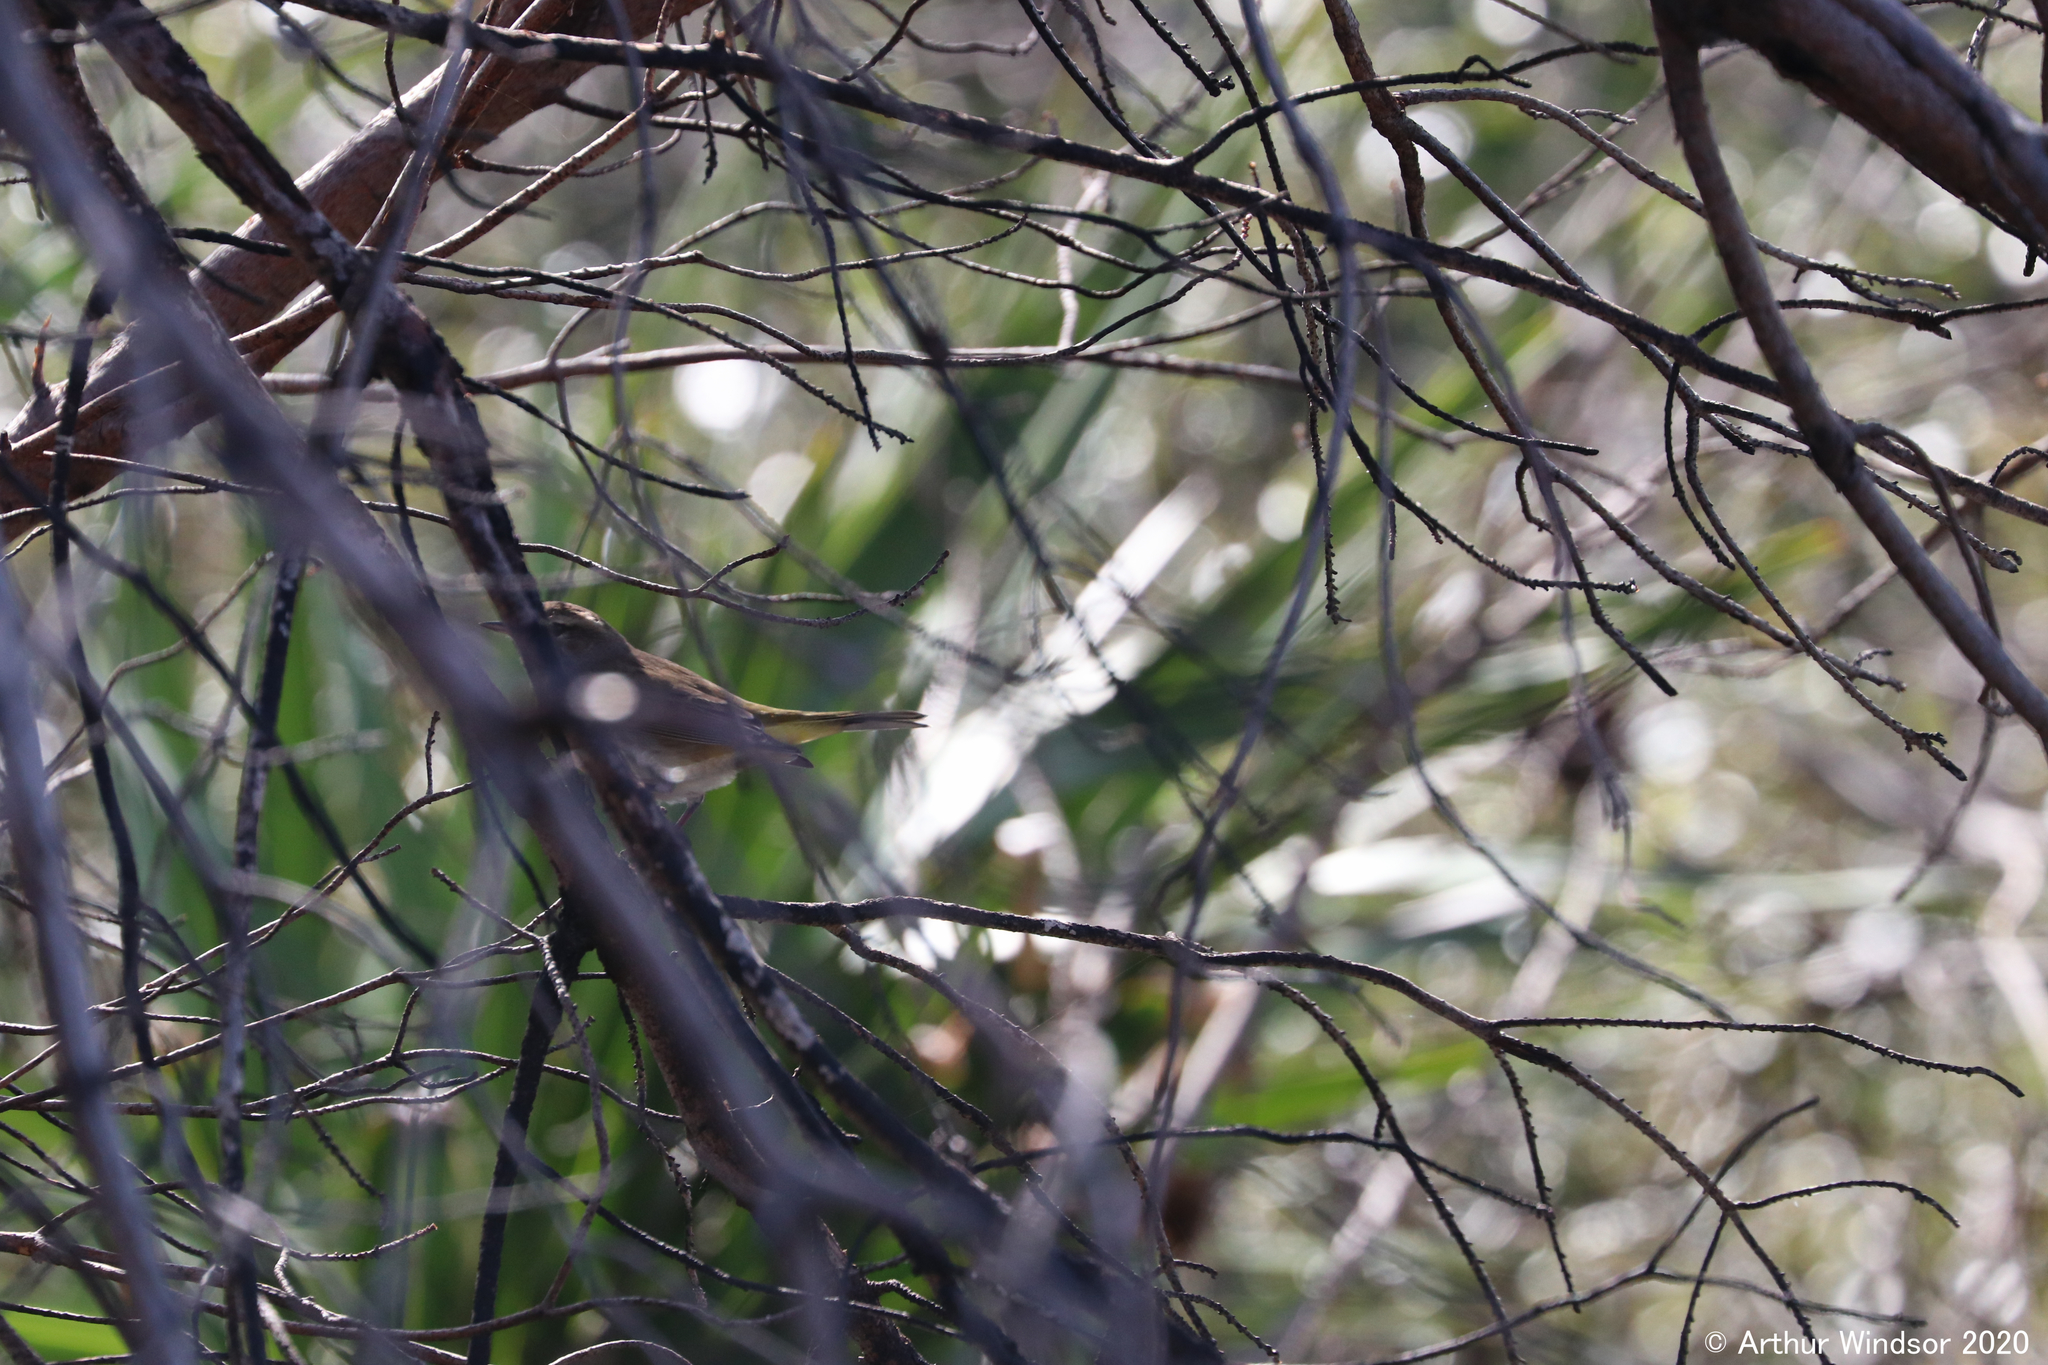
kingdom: Animalia
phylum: Chordata
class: Aves
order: Passeriformes
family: Parulidae
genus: Setophaga
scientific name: Setophaga palmarum
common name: Palm warbler
